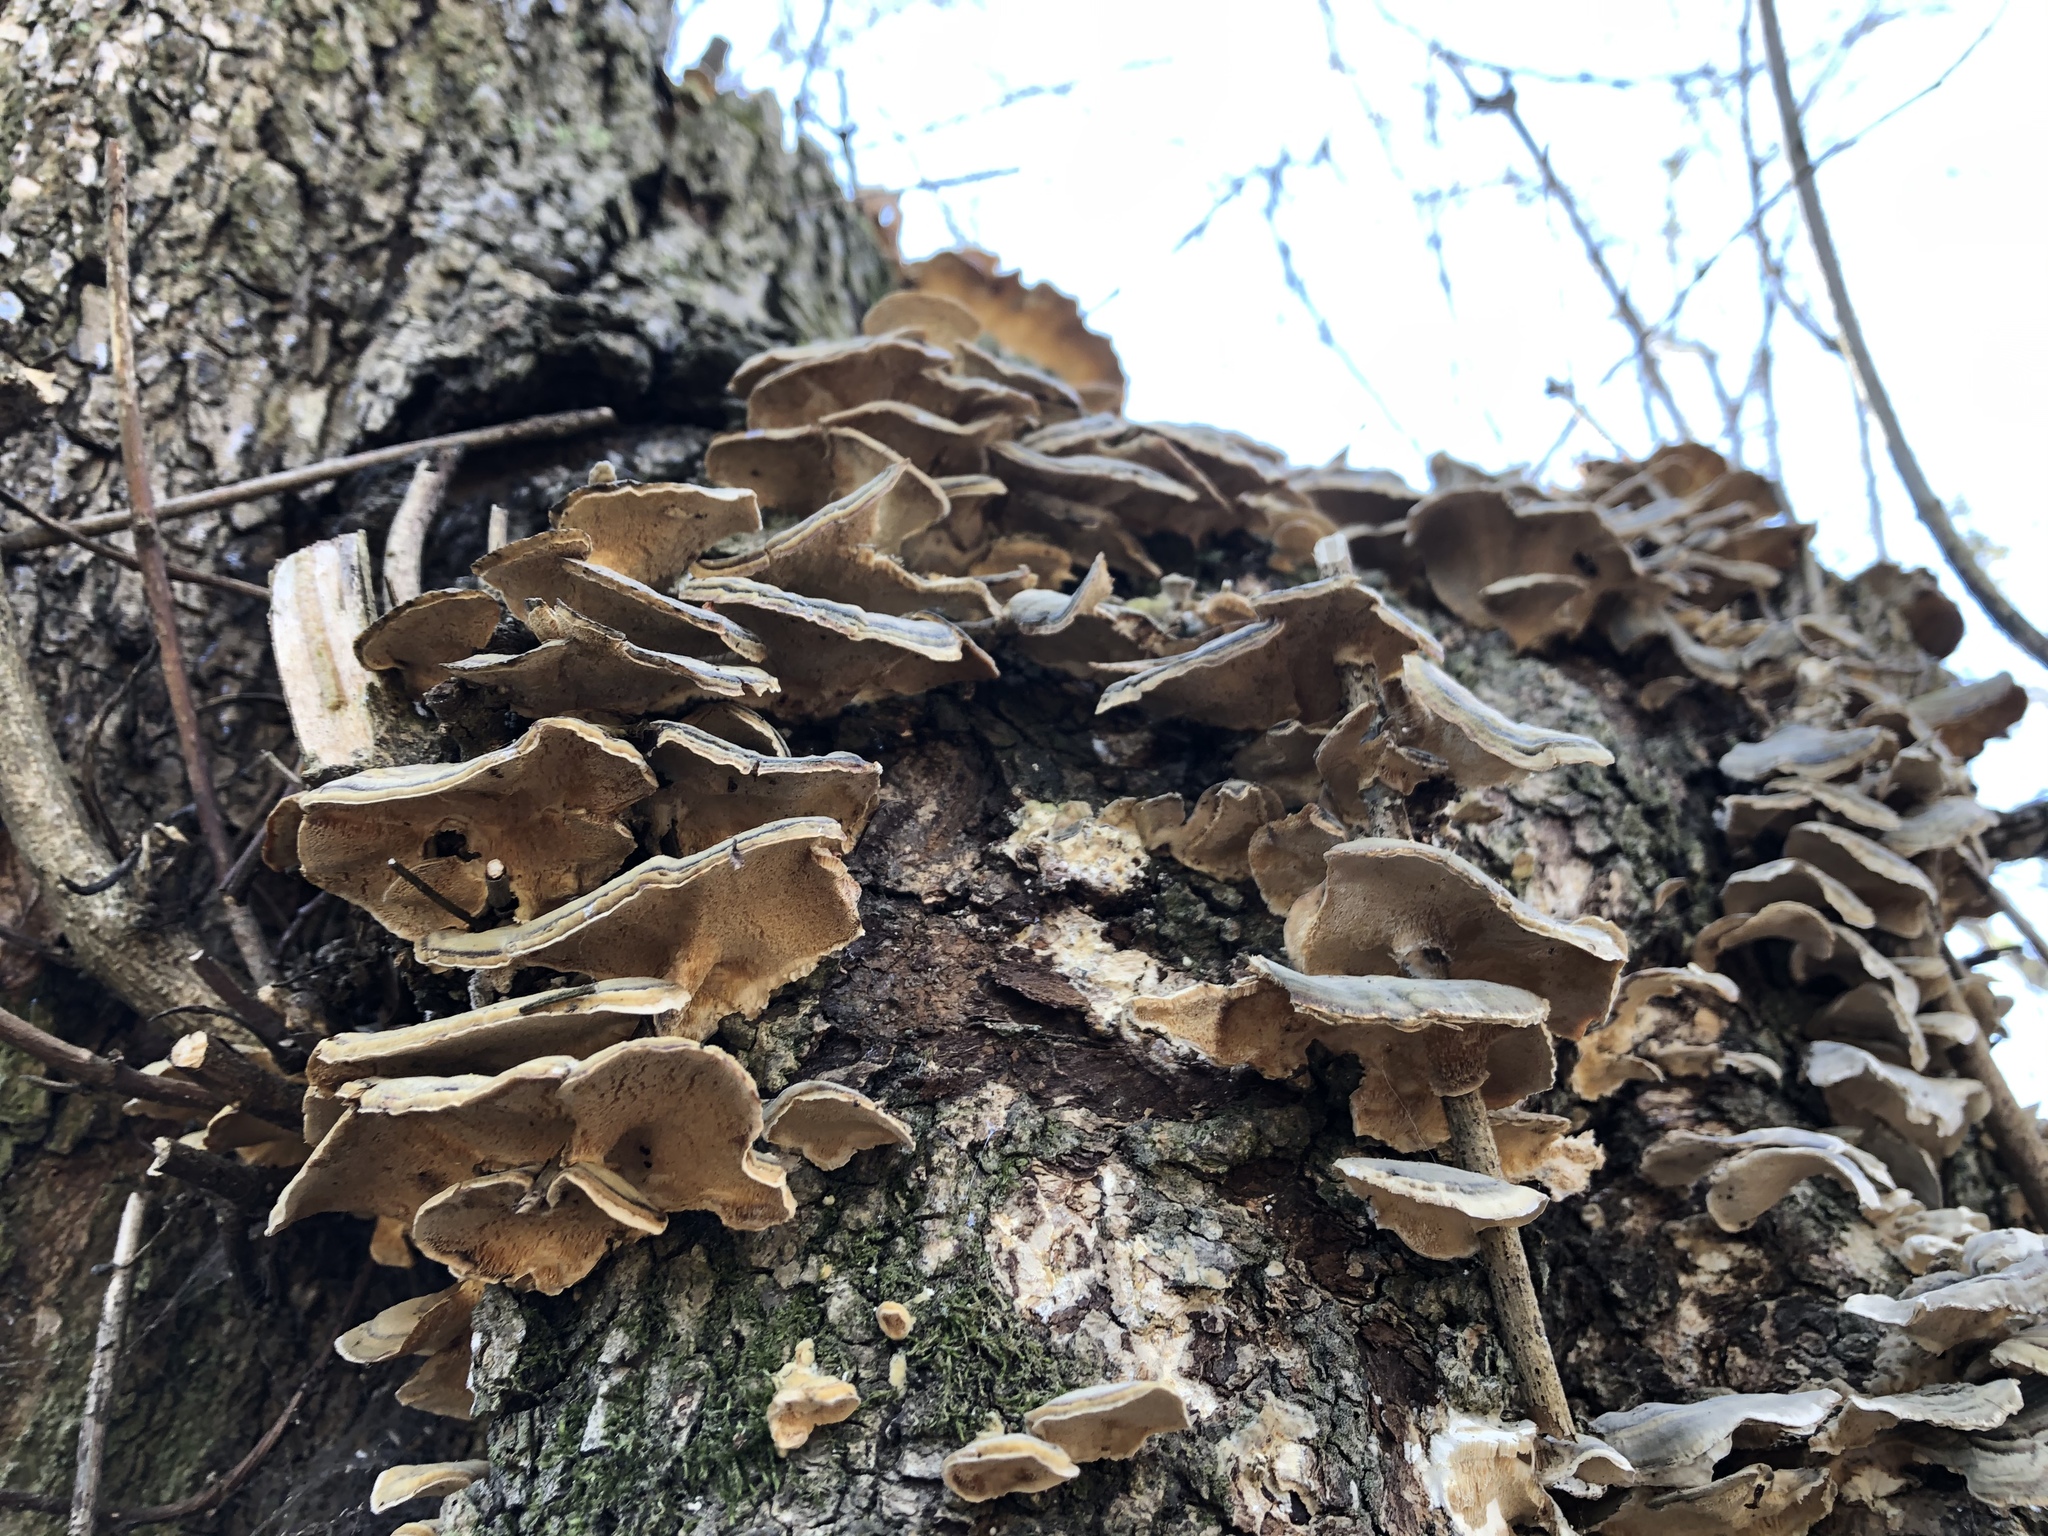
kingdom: Fungi
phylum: Basidiomycota
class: Agaricomycetes
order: Polyporales
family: Polyporaceae
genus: Trametes
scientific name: Trametes versicolor
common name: Turkeytail
